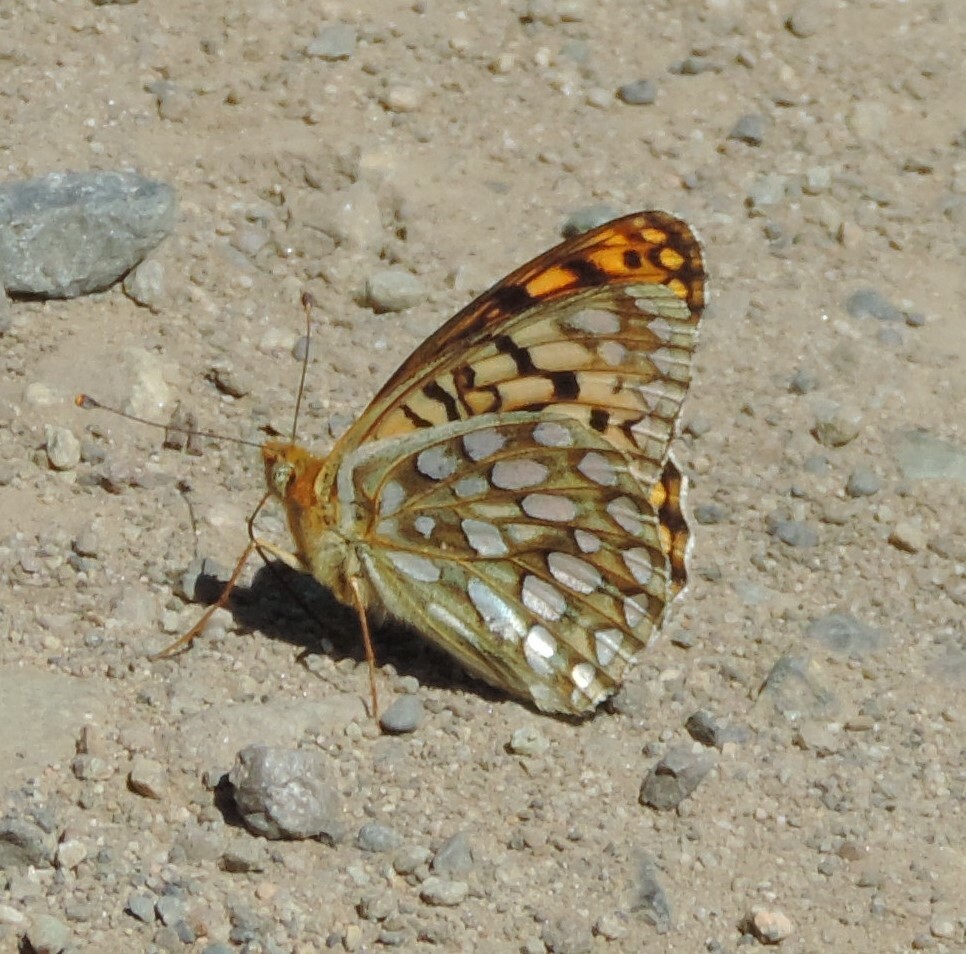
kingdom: Animalia
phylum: Arthropoda
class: Insecta
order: Lepidoptera
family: Nymphalidae
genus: Speyeria
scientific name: Speyeria callippe
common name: Callippe fritillary
